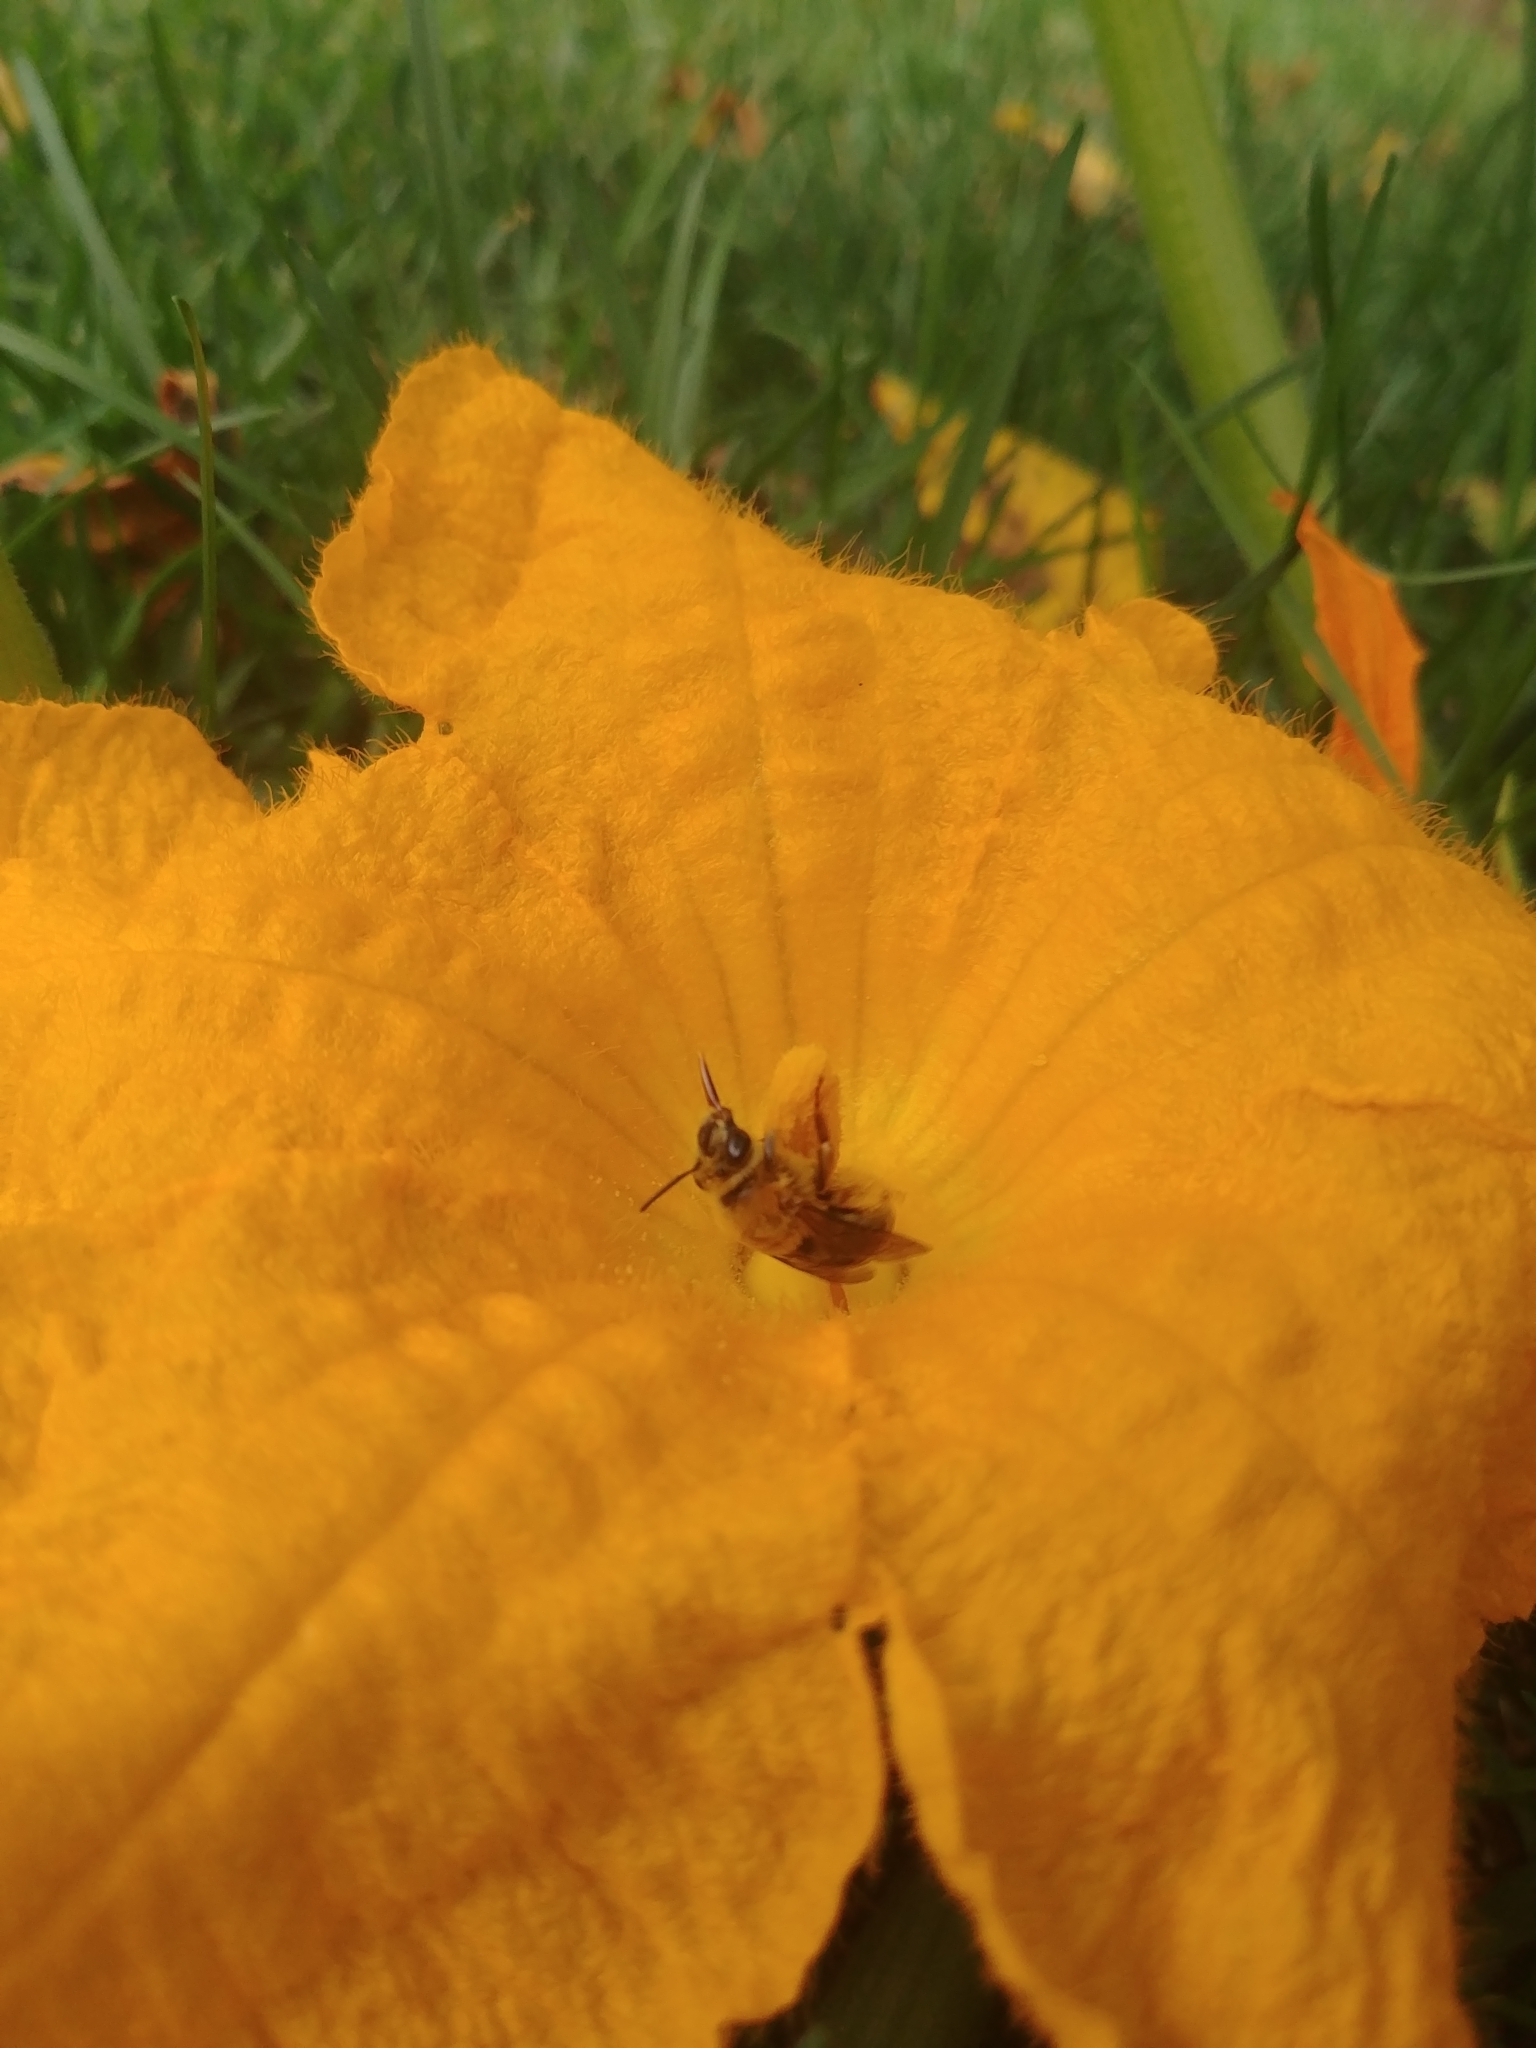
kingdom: Animalia
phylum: Arthropoda
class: Insecta
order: Hymenoptera
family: Apidae
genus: Peponapis
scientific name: Peponapis pruinosa
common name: Pruinose squash bee
